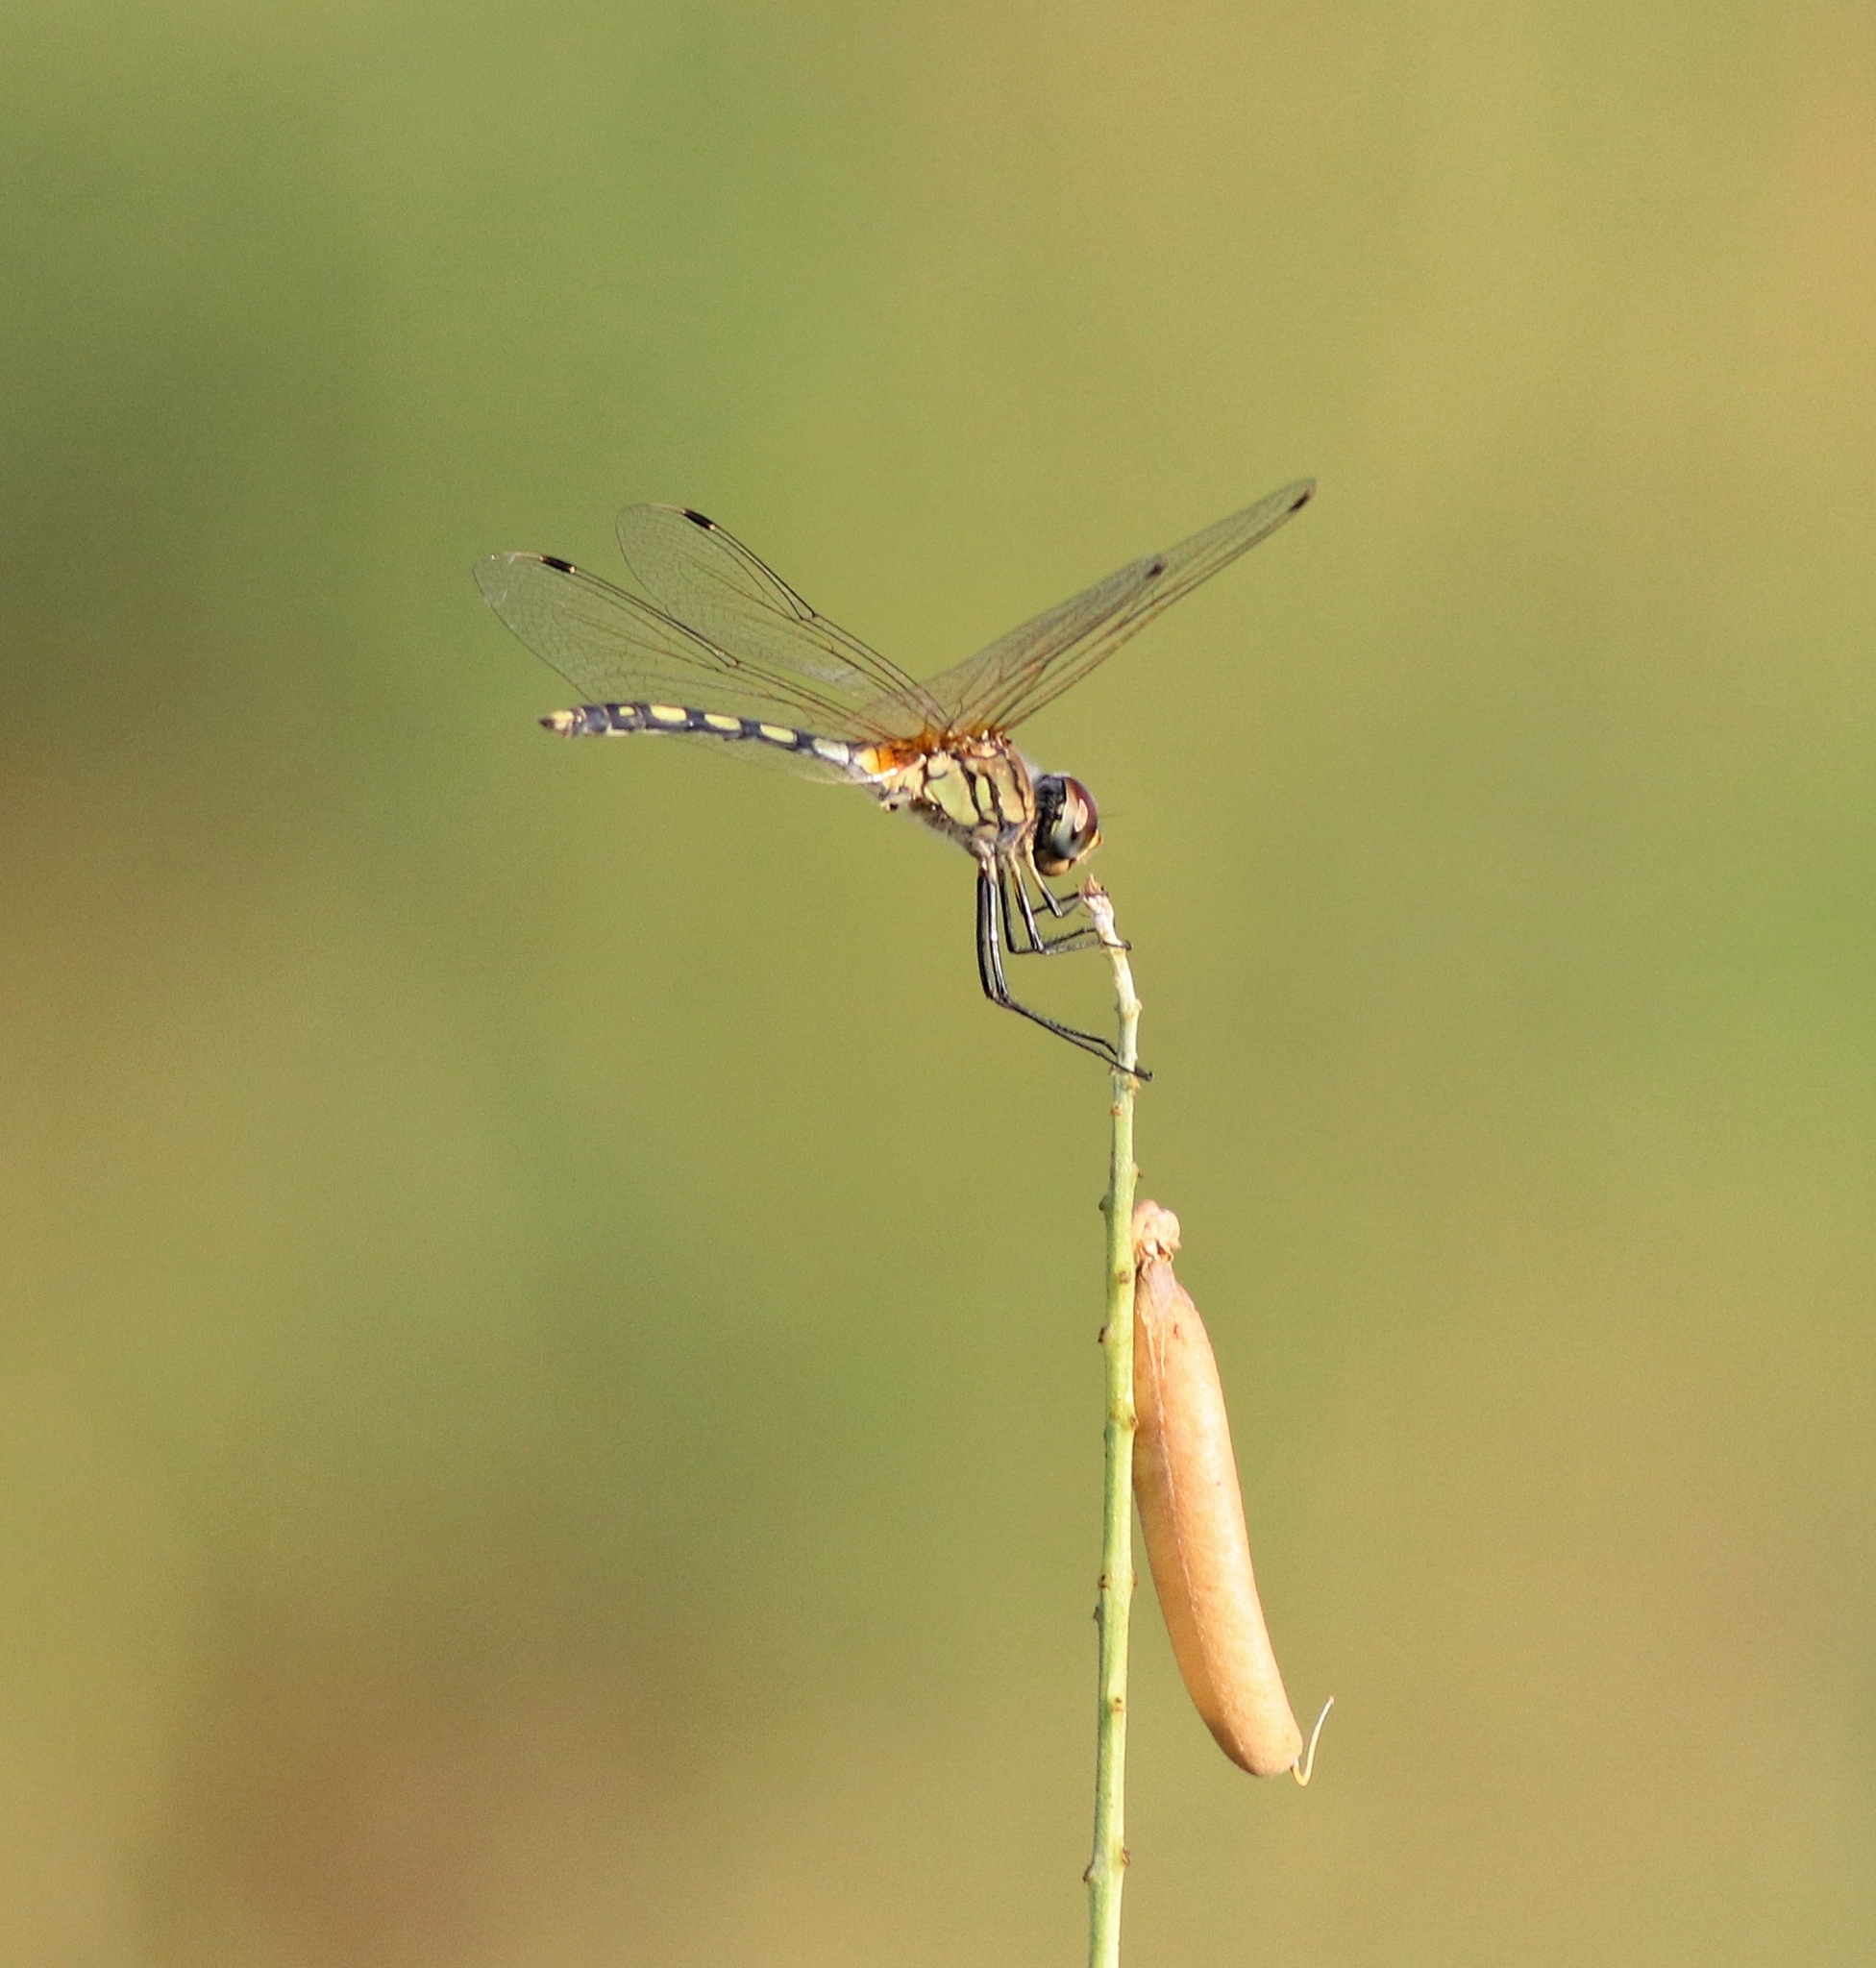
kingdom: Animalia
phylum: Arthropoda
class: Insecta
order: Odonata
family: Libellulidae
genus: Trithemis
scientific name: Trithemis pallidinervis
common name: Dancing dropwing
